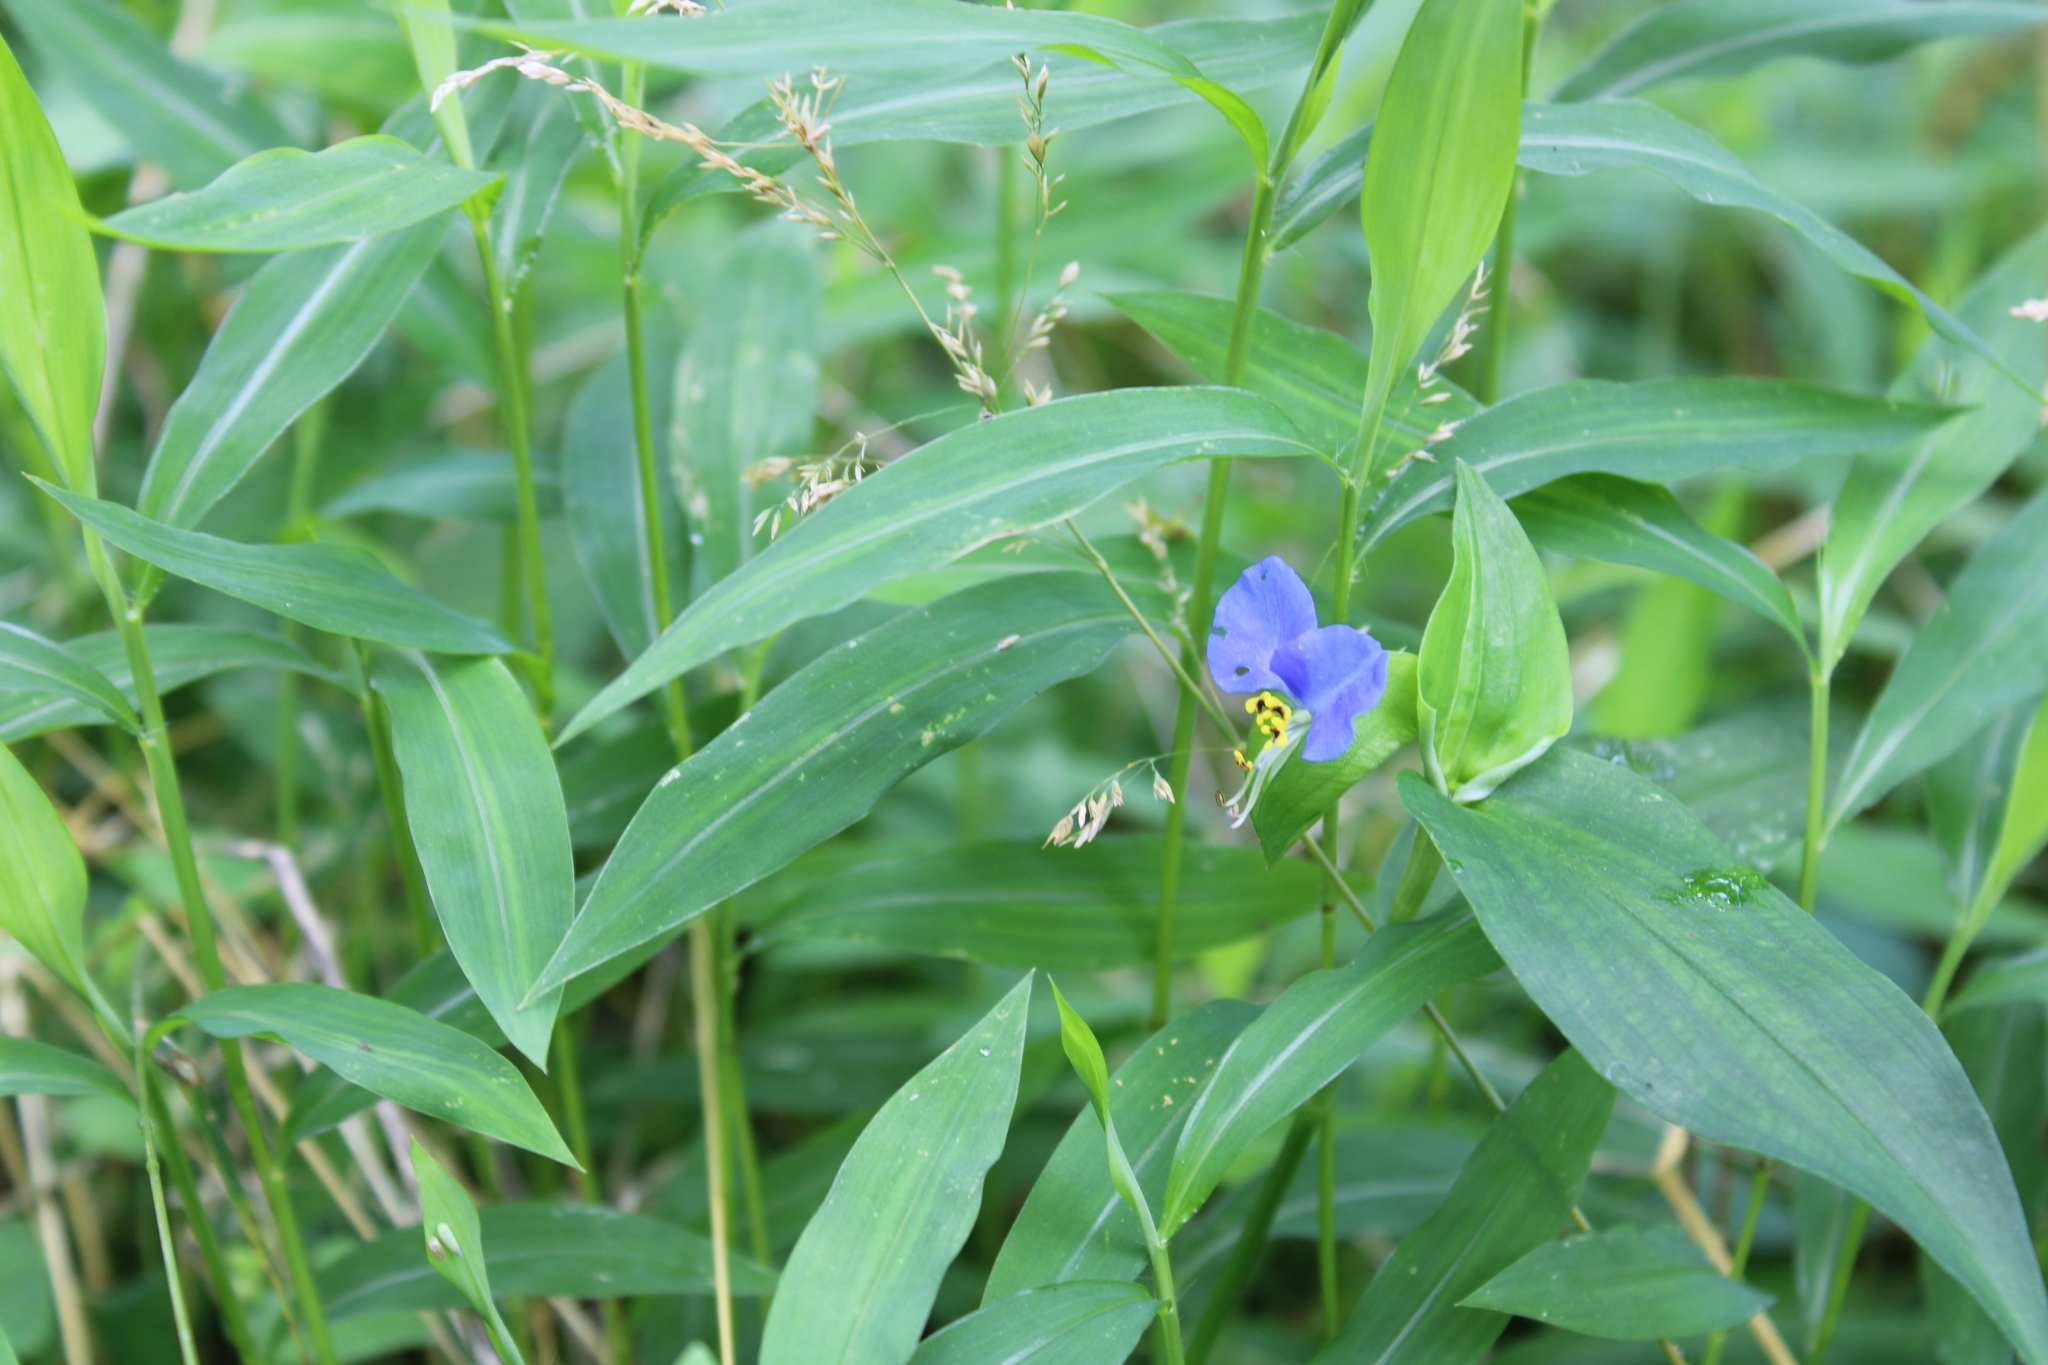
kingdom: Plantae
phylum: Tracheophyta
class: Liliopsida
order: Commelinales
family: Commelinaceae
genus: Commelina
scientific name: Commelina communis
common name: Asiatic dayflower
